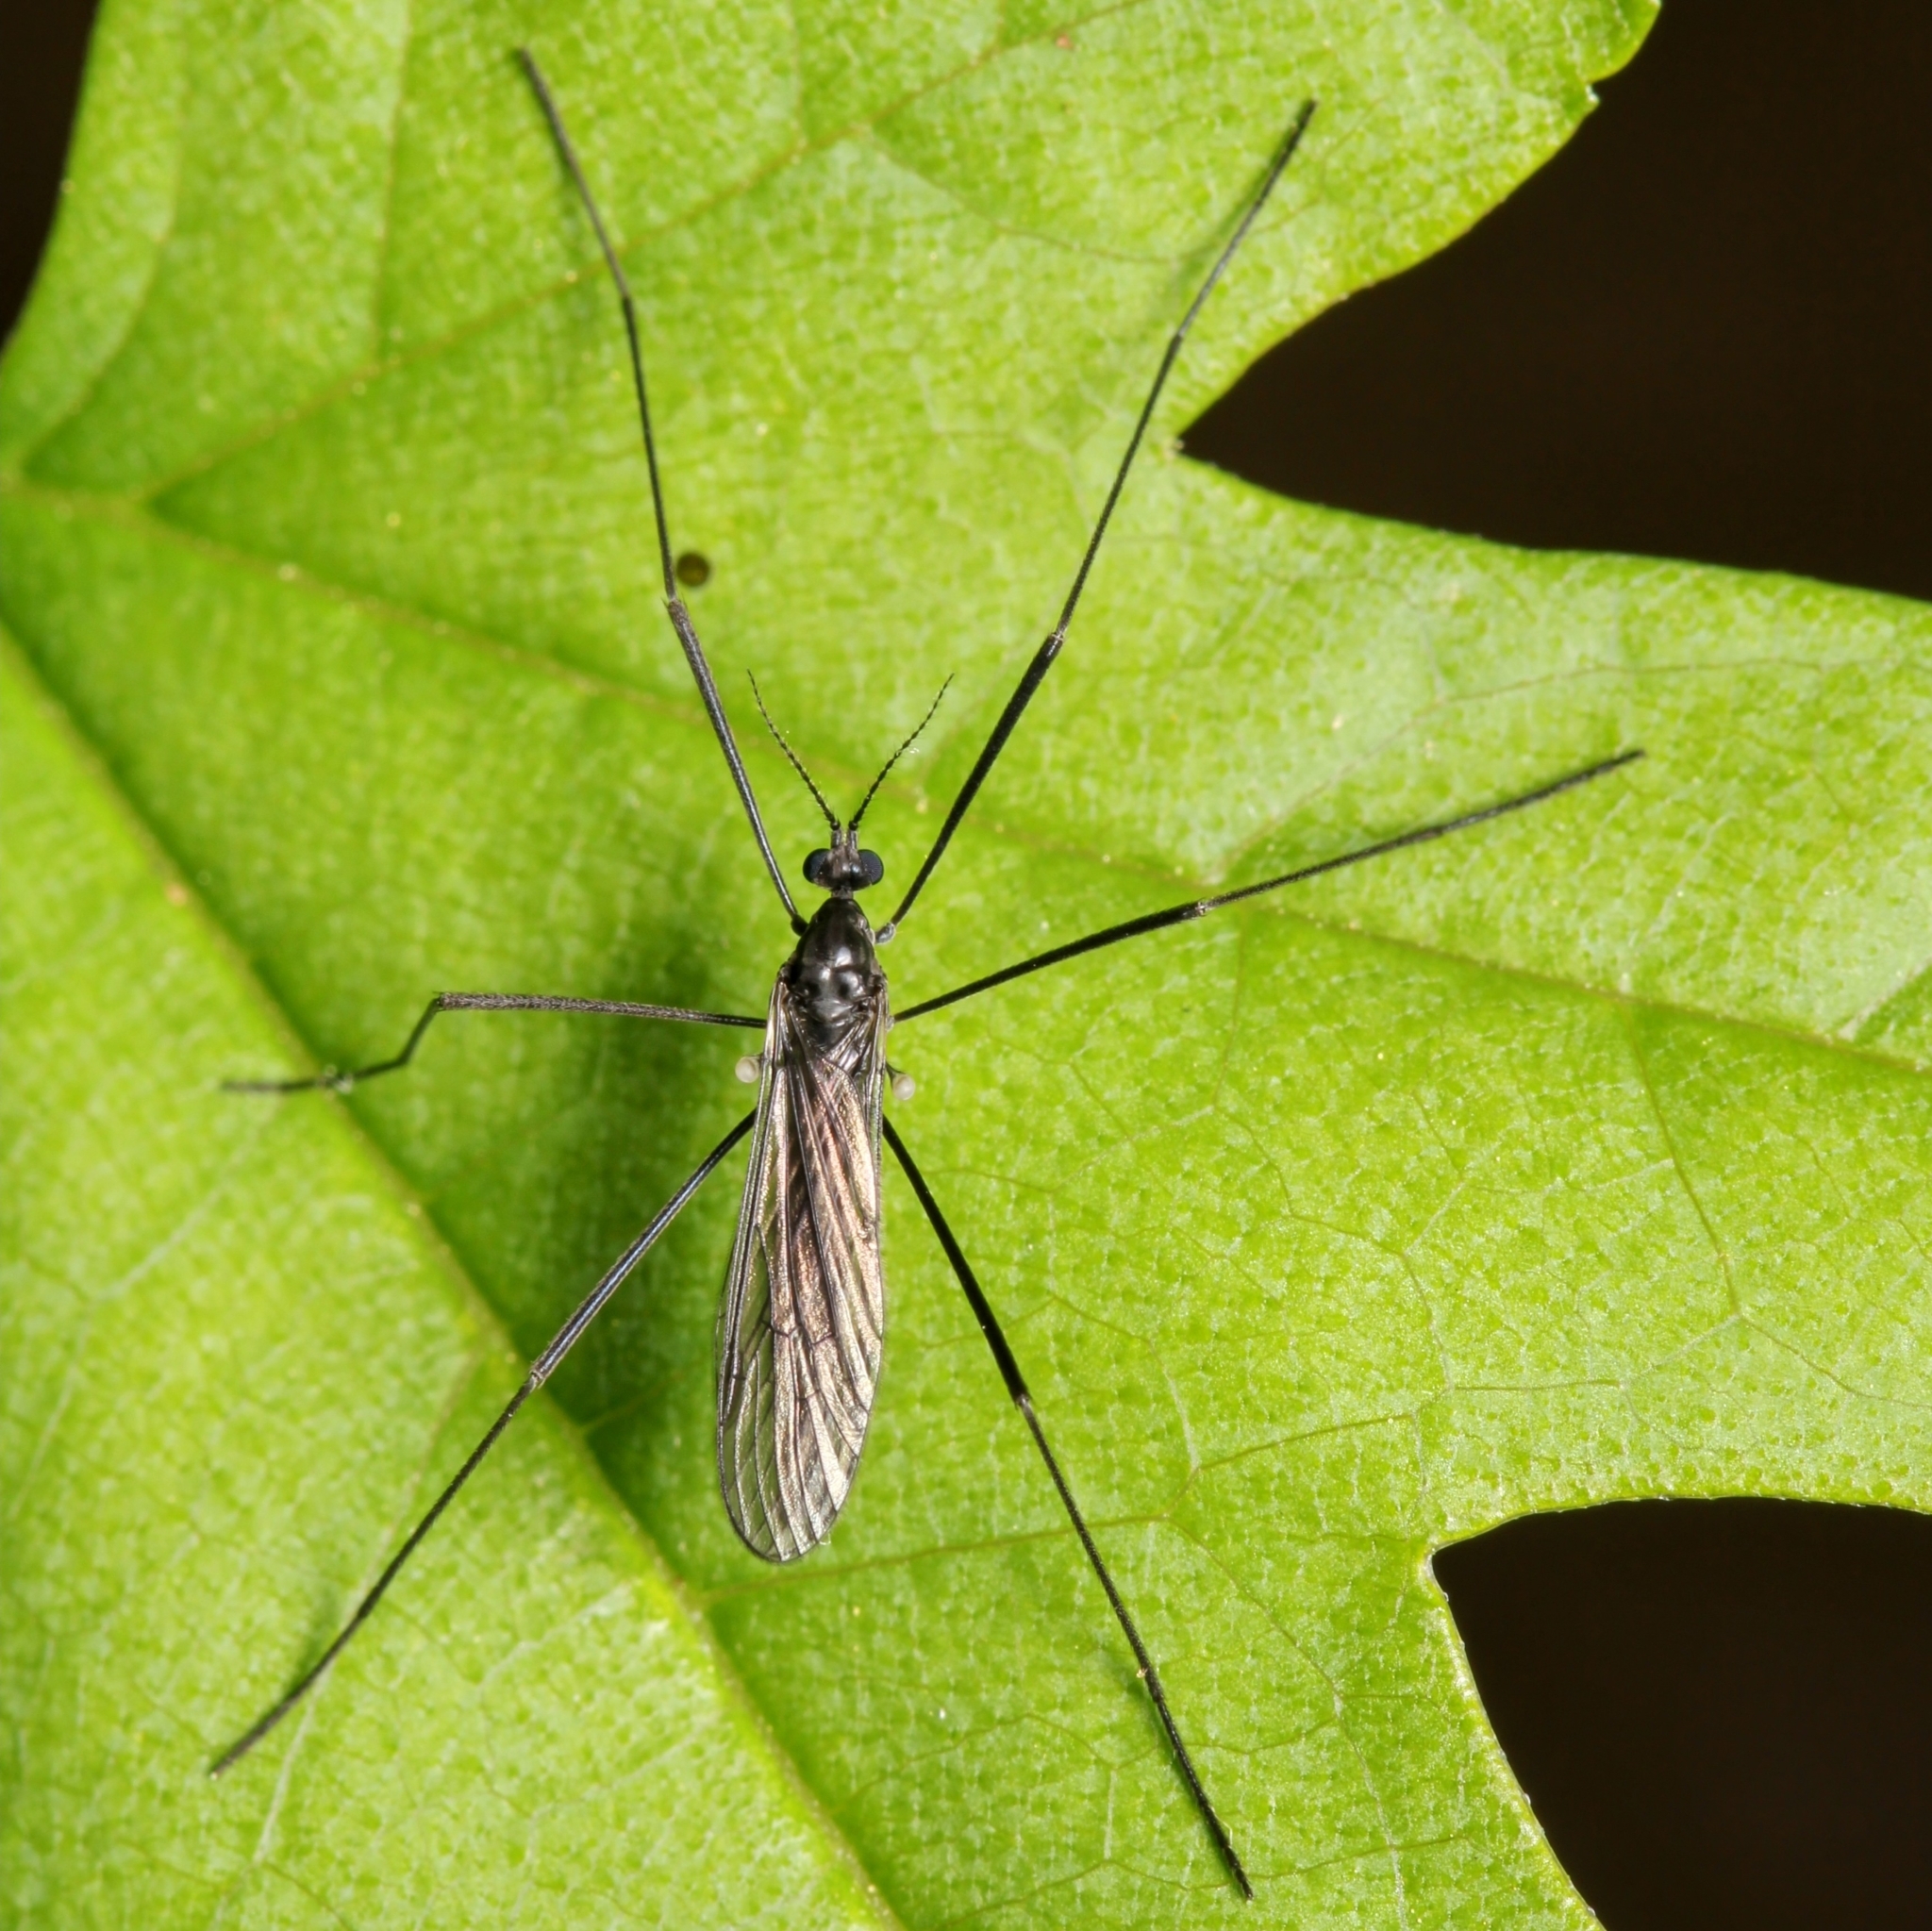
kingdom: Animalia
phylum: Arthropoda
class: Insecta
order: Diptera
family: Limoniidae
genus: Gnophomyia
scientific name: Gnophomyia tristissima
